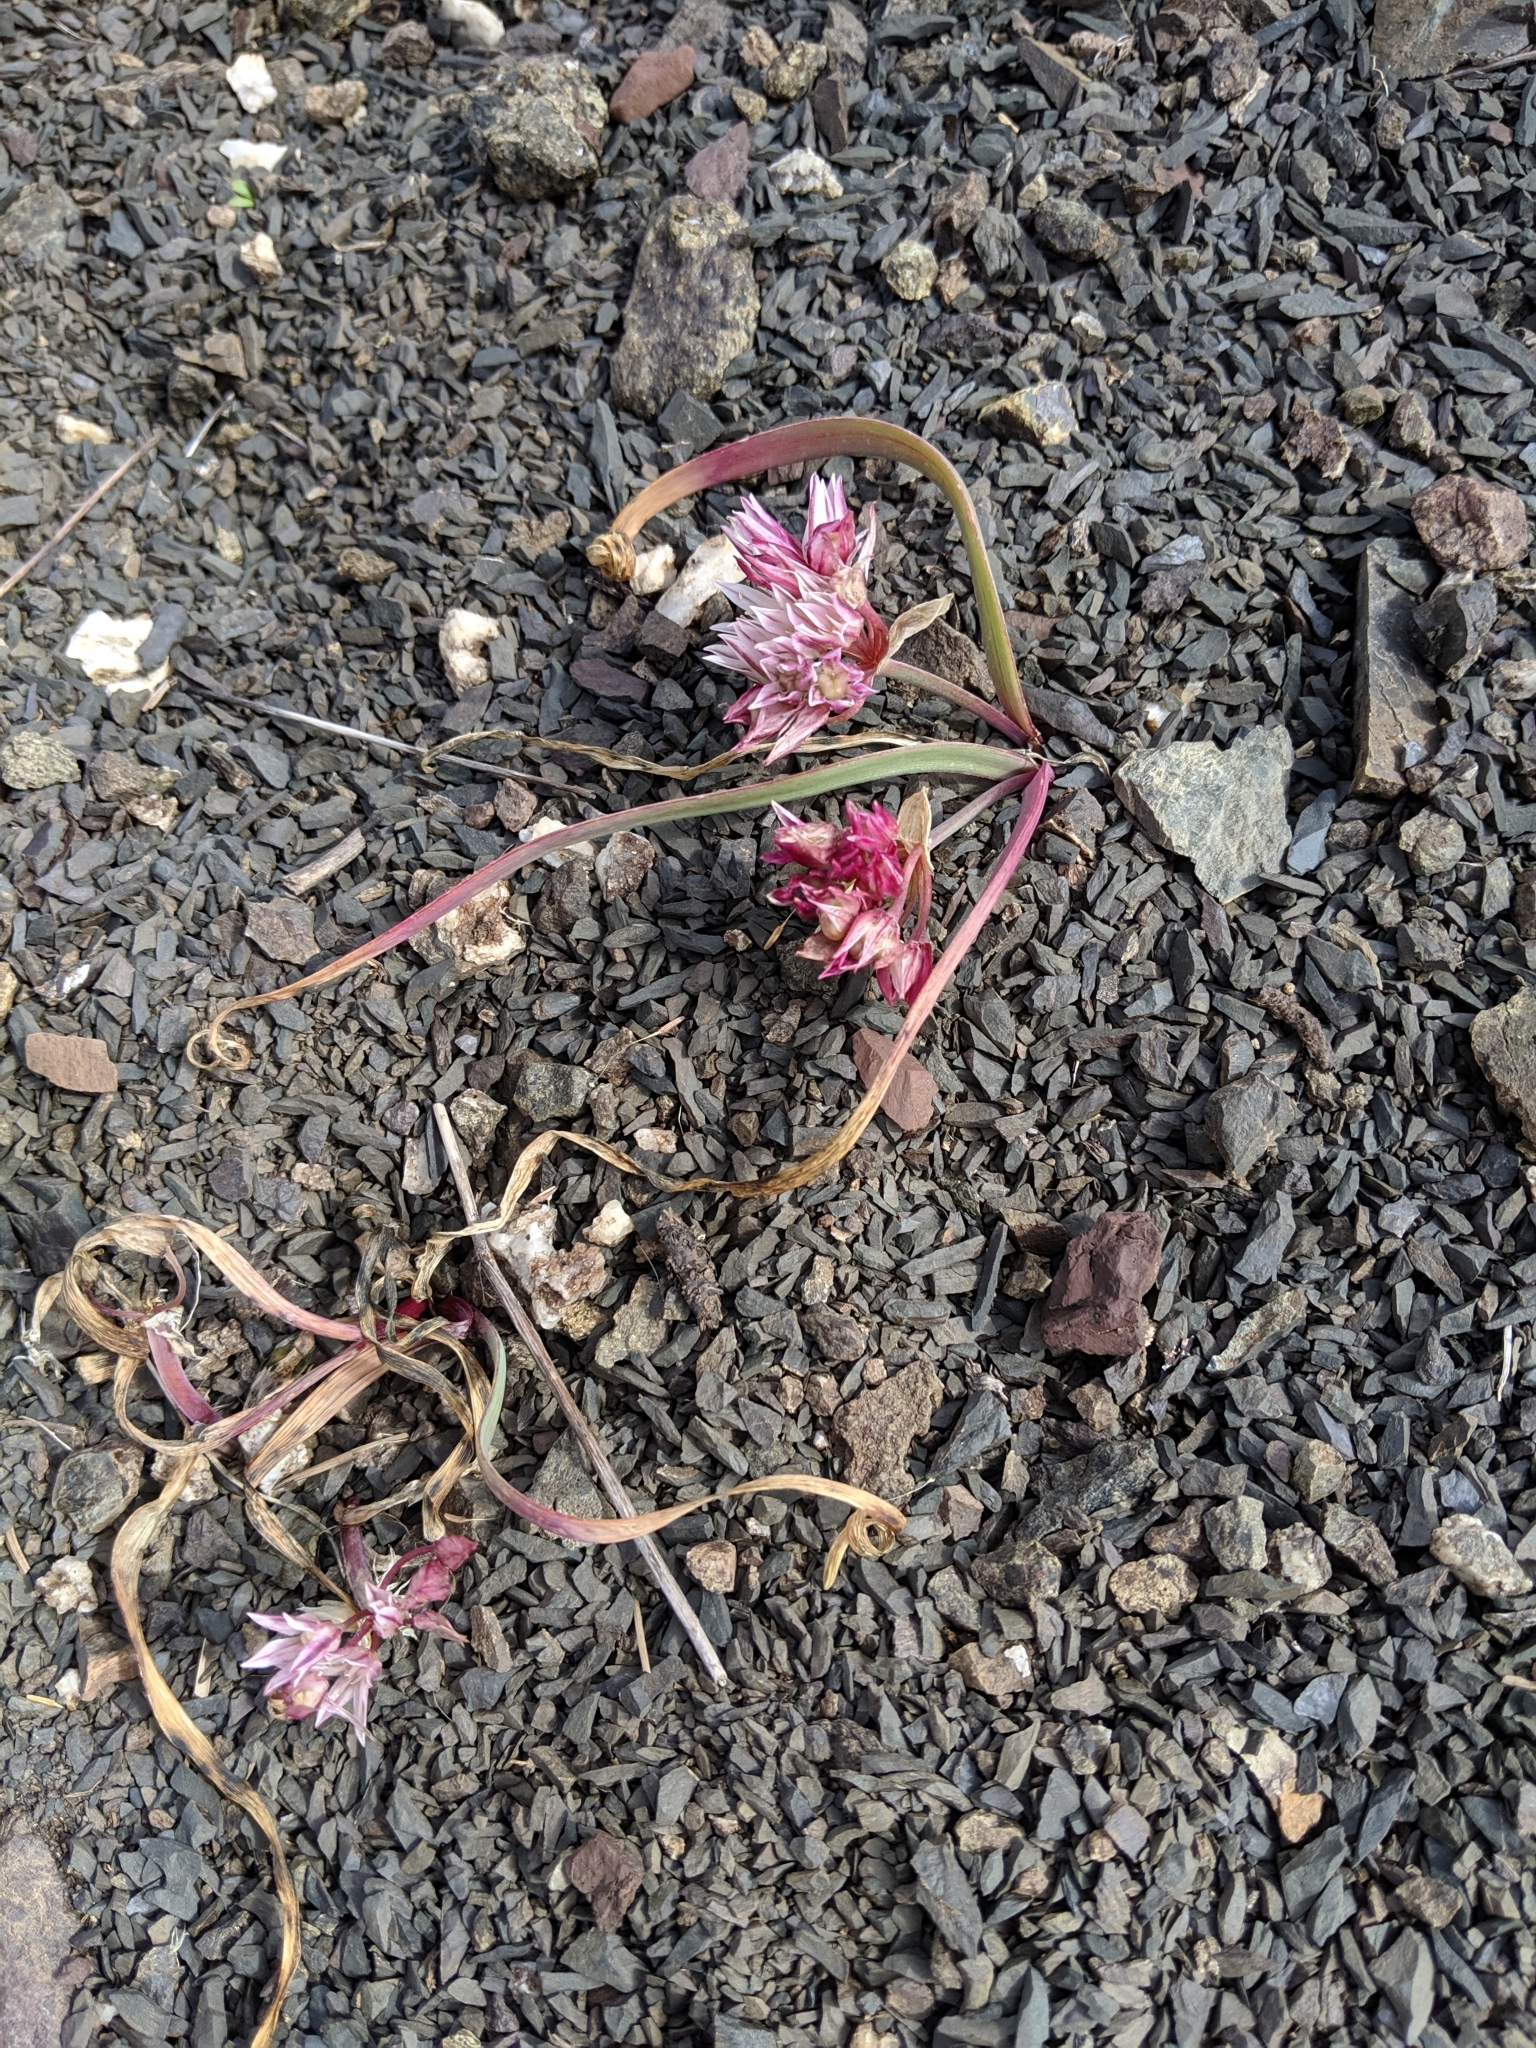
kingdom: Plantae
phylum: Tracheophyta
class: Liliopsida
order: Asparagales
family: Amaryllidaceae
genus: Allium
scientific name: Allium crenulatum
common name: Olympic onion
